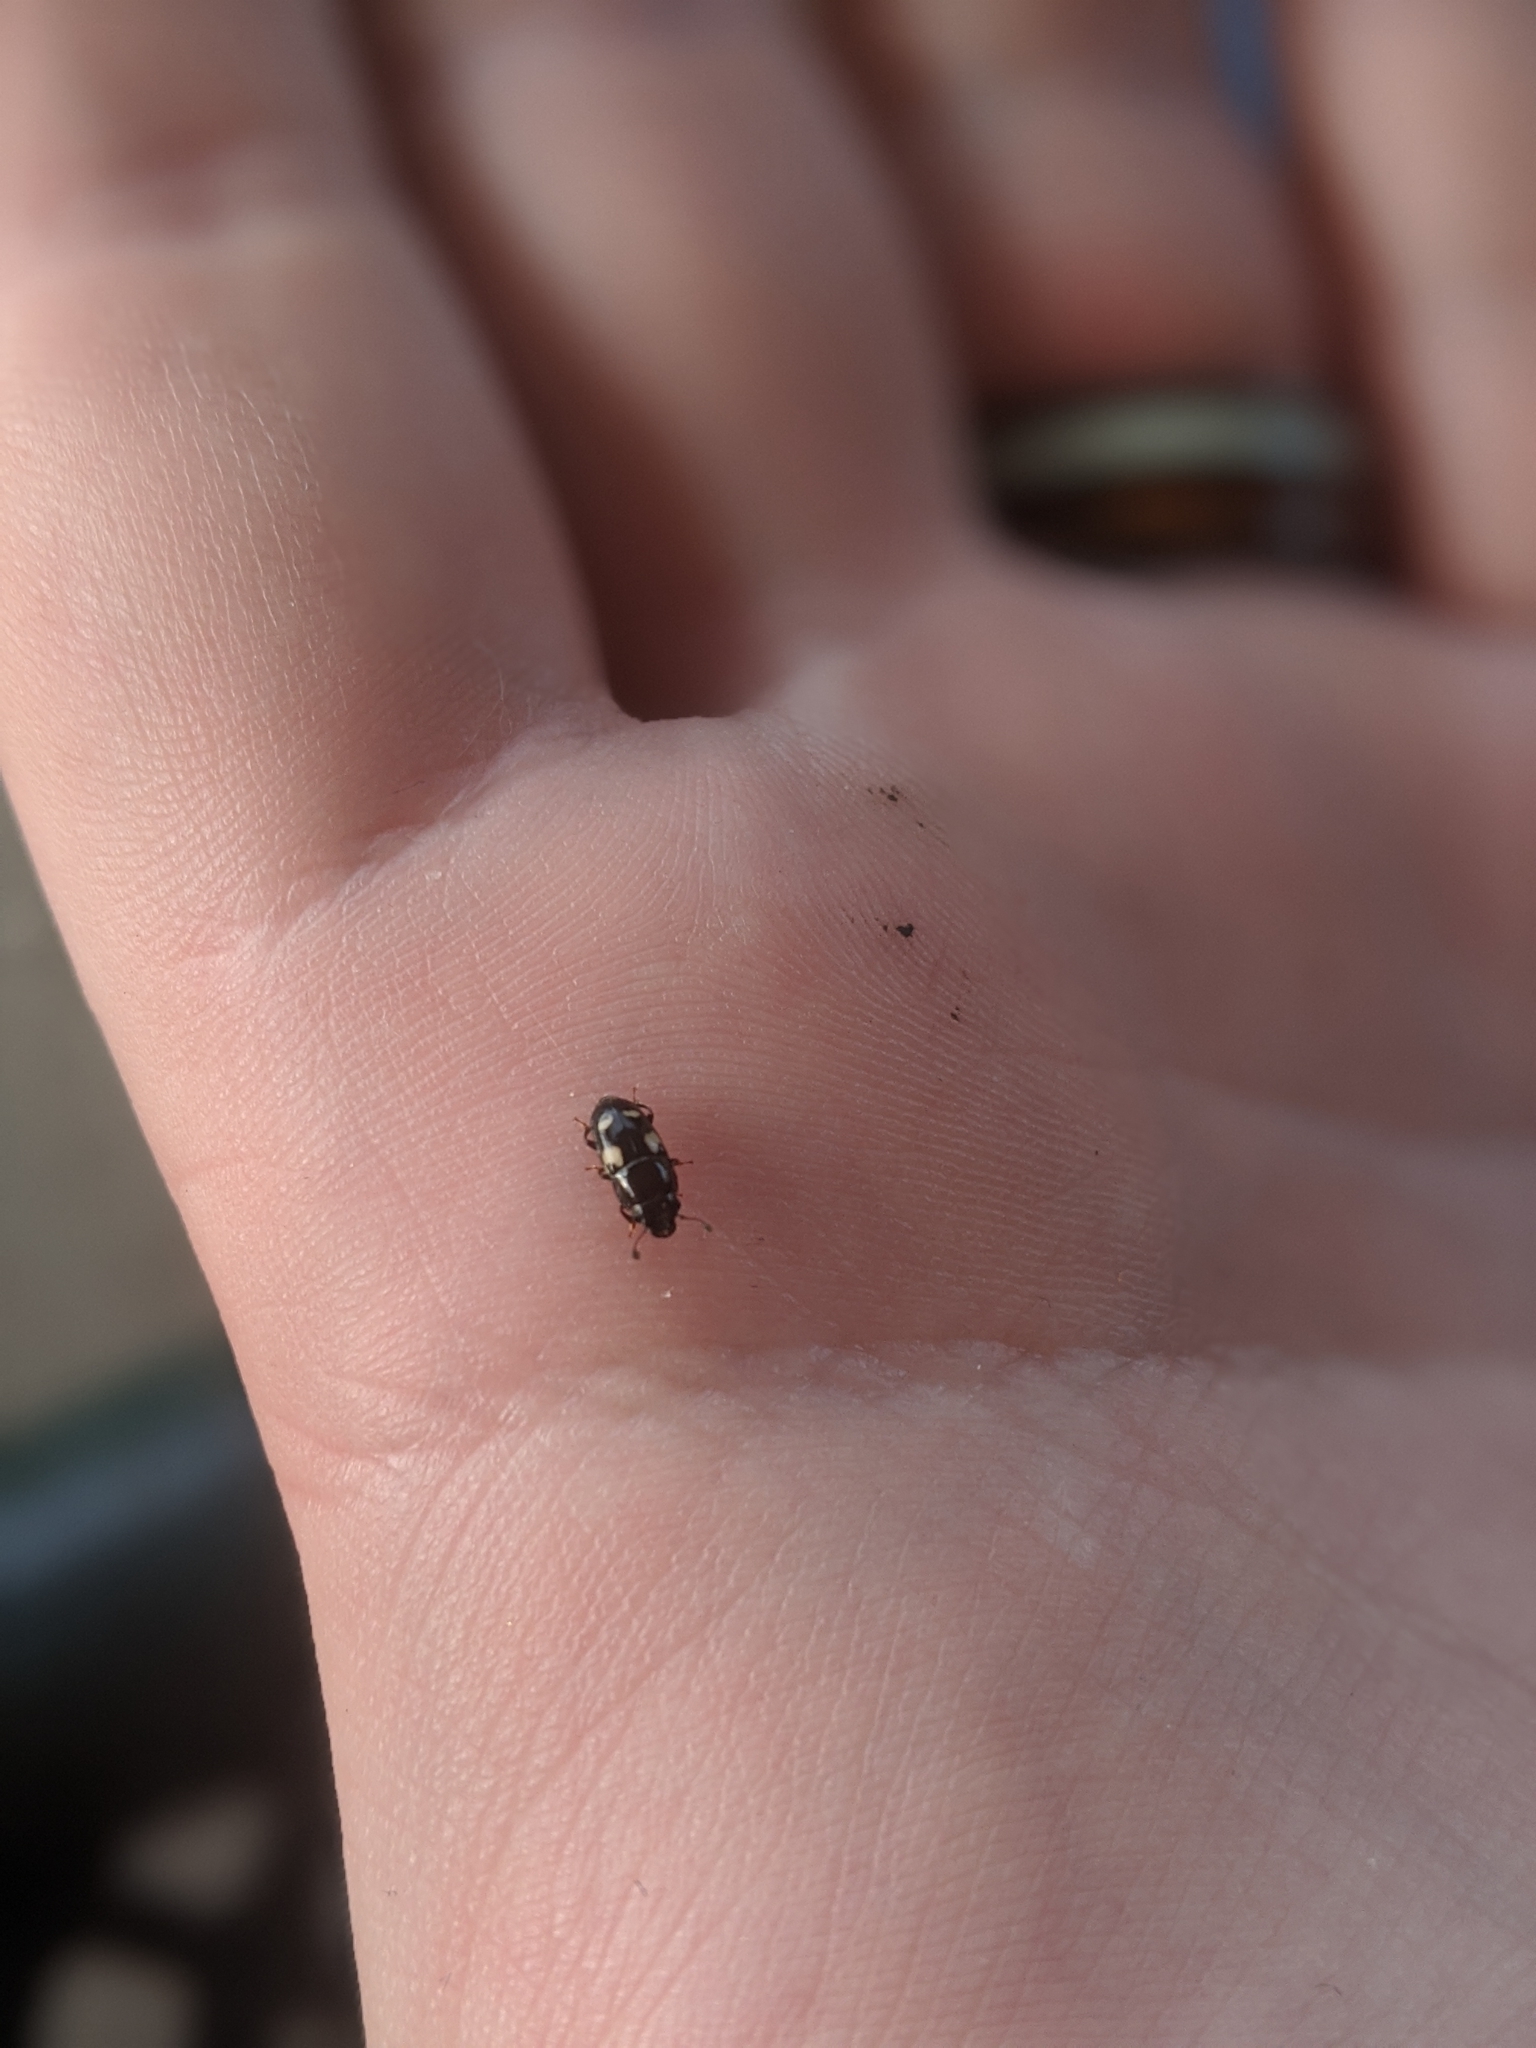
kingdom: Animalia
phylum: Arthropoda
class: Insecta
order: Coleoptera
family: Nitidulidae
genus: Glischrochilus
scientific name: Glischrochilus quadrisignatus
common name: Picnic beetle
